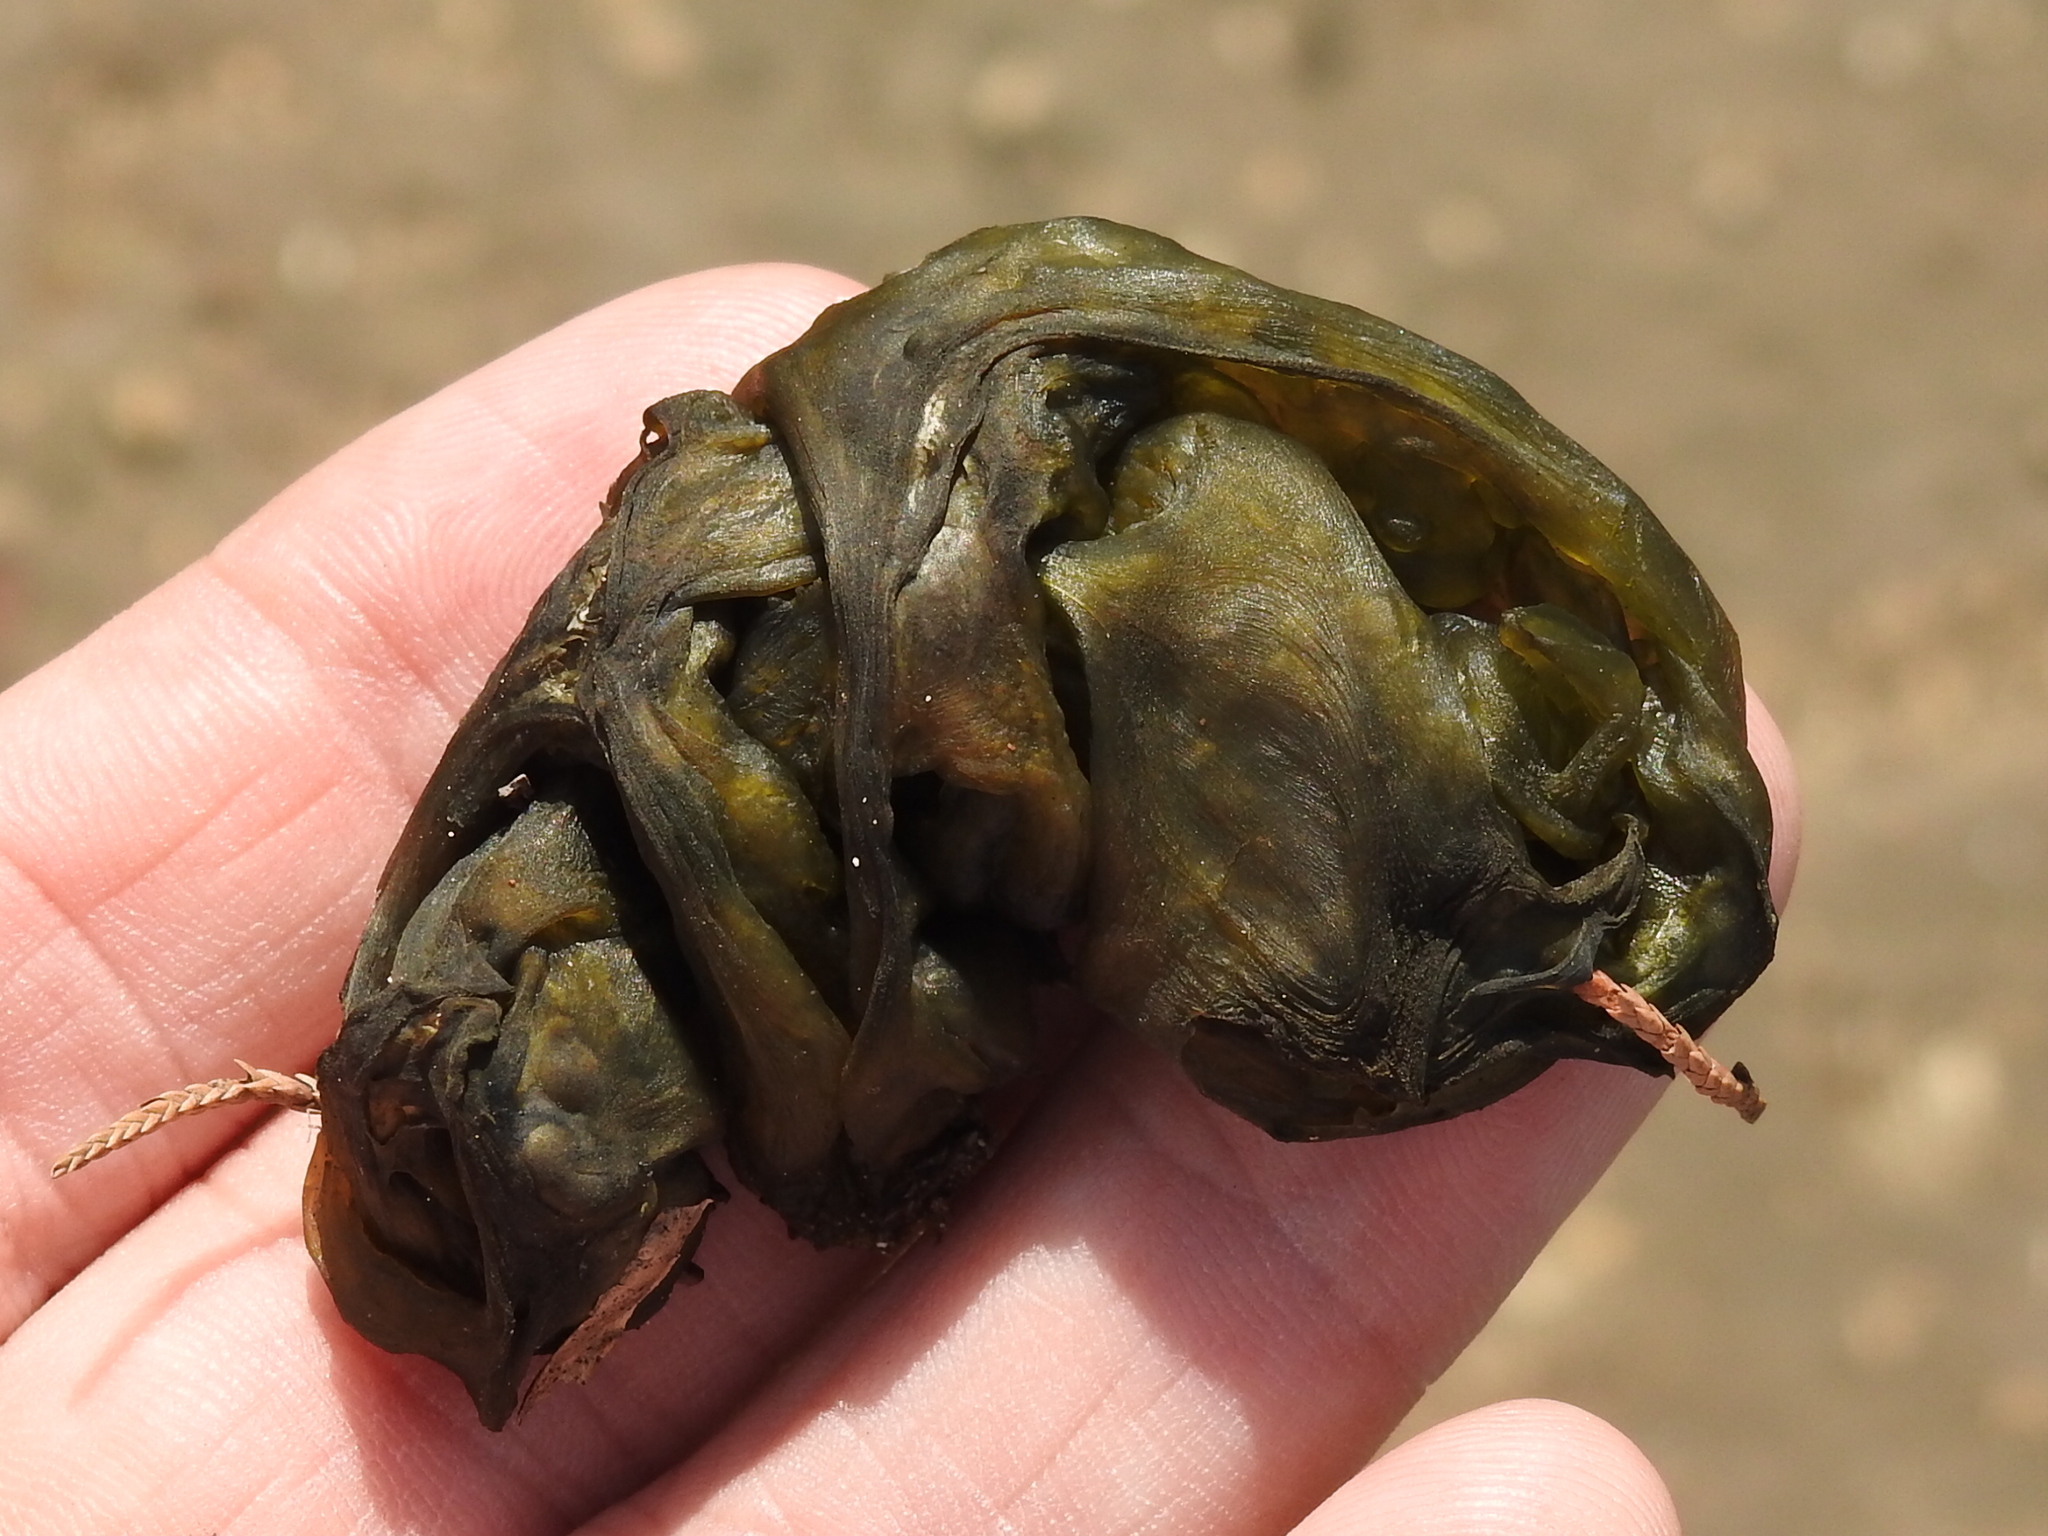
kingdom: Bacteria
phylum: Cyanobacteria
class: Cyanobacteriia
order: Cyanobacteriales
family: Nostocaceae
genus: Nostoc
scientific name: Nostoc commune
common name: Star jelly
